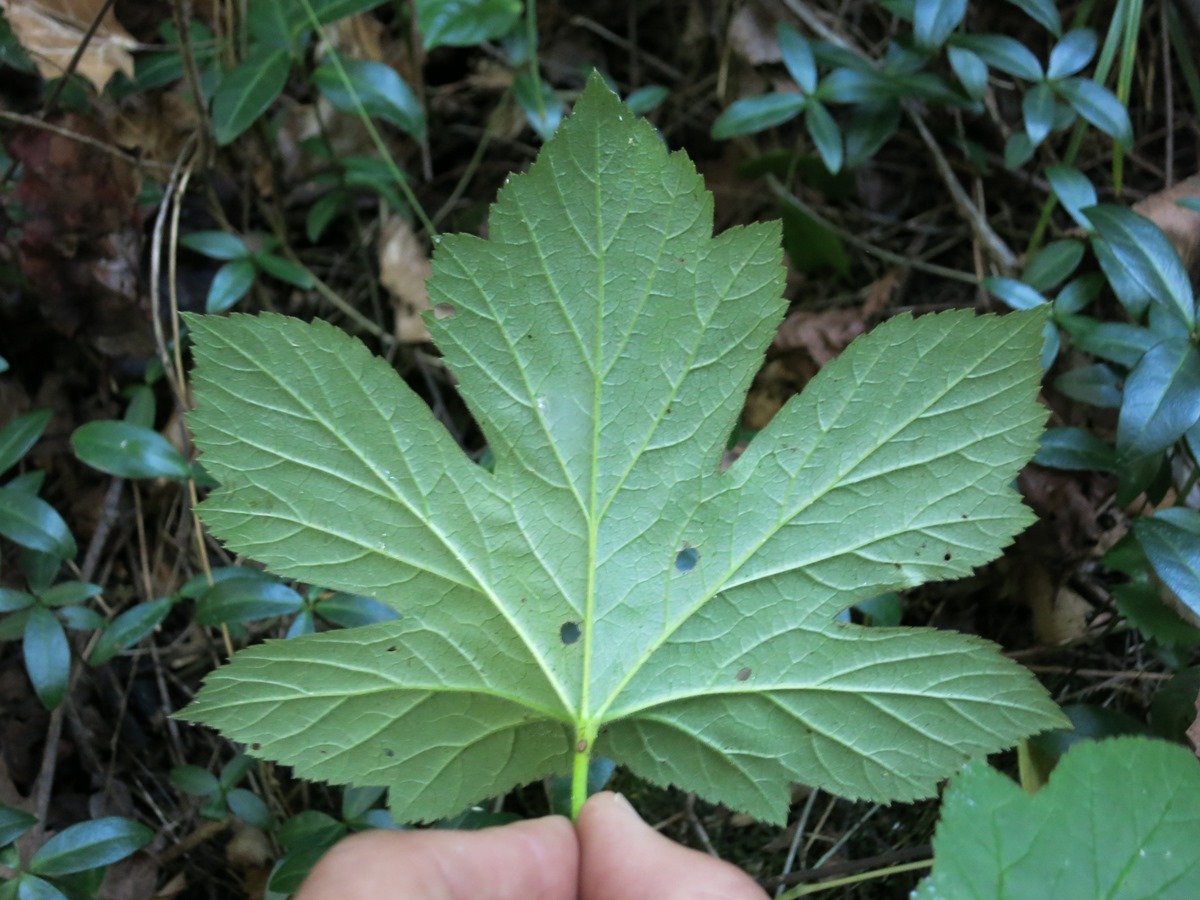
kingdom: Plantae
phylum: Tracheophyta
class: Magnoliopsida
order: Ranunculales
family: Ranunculaceae
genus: Hydrastis
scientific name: Hydrastis canadensis
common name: Goldenseal
